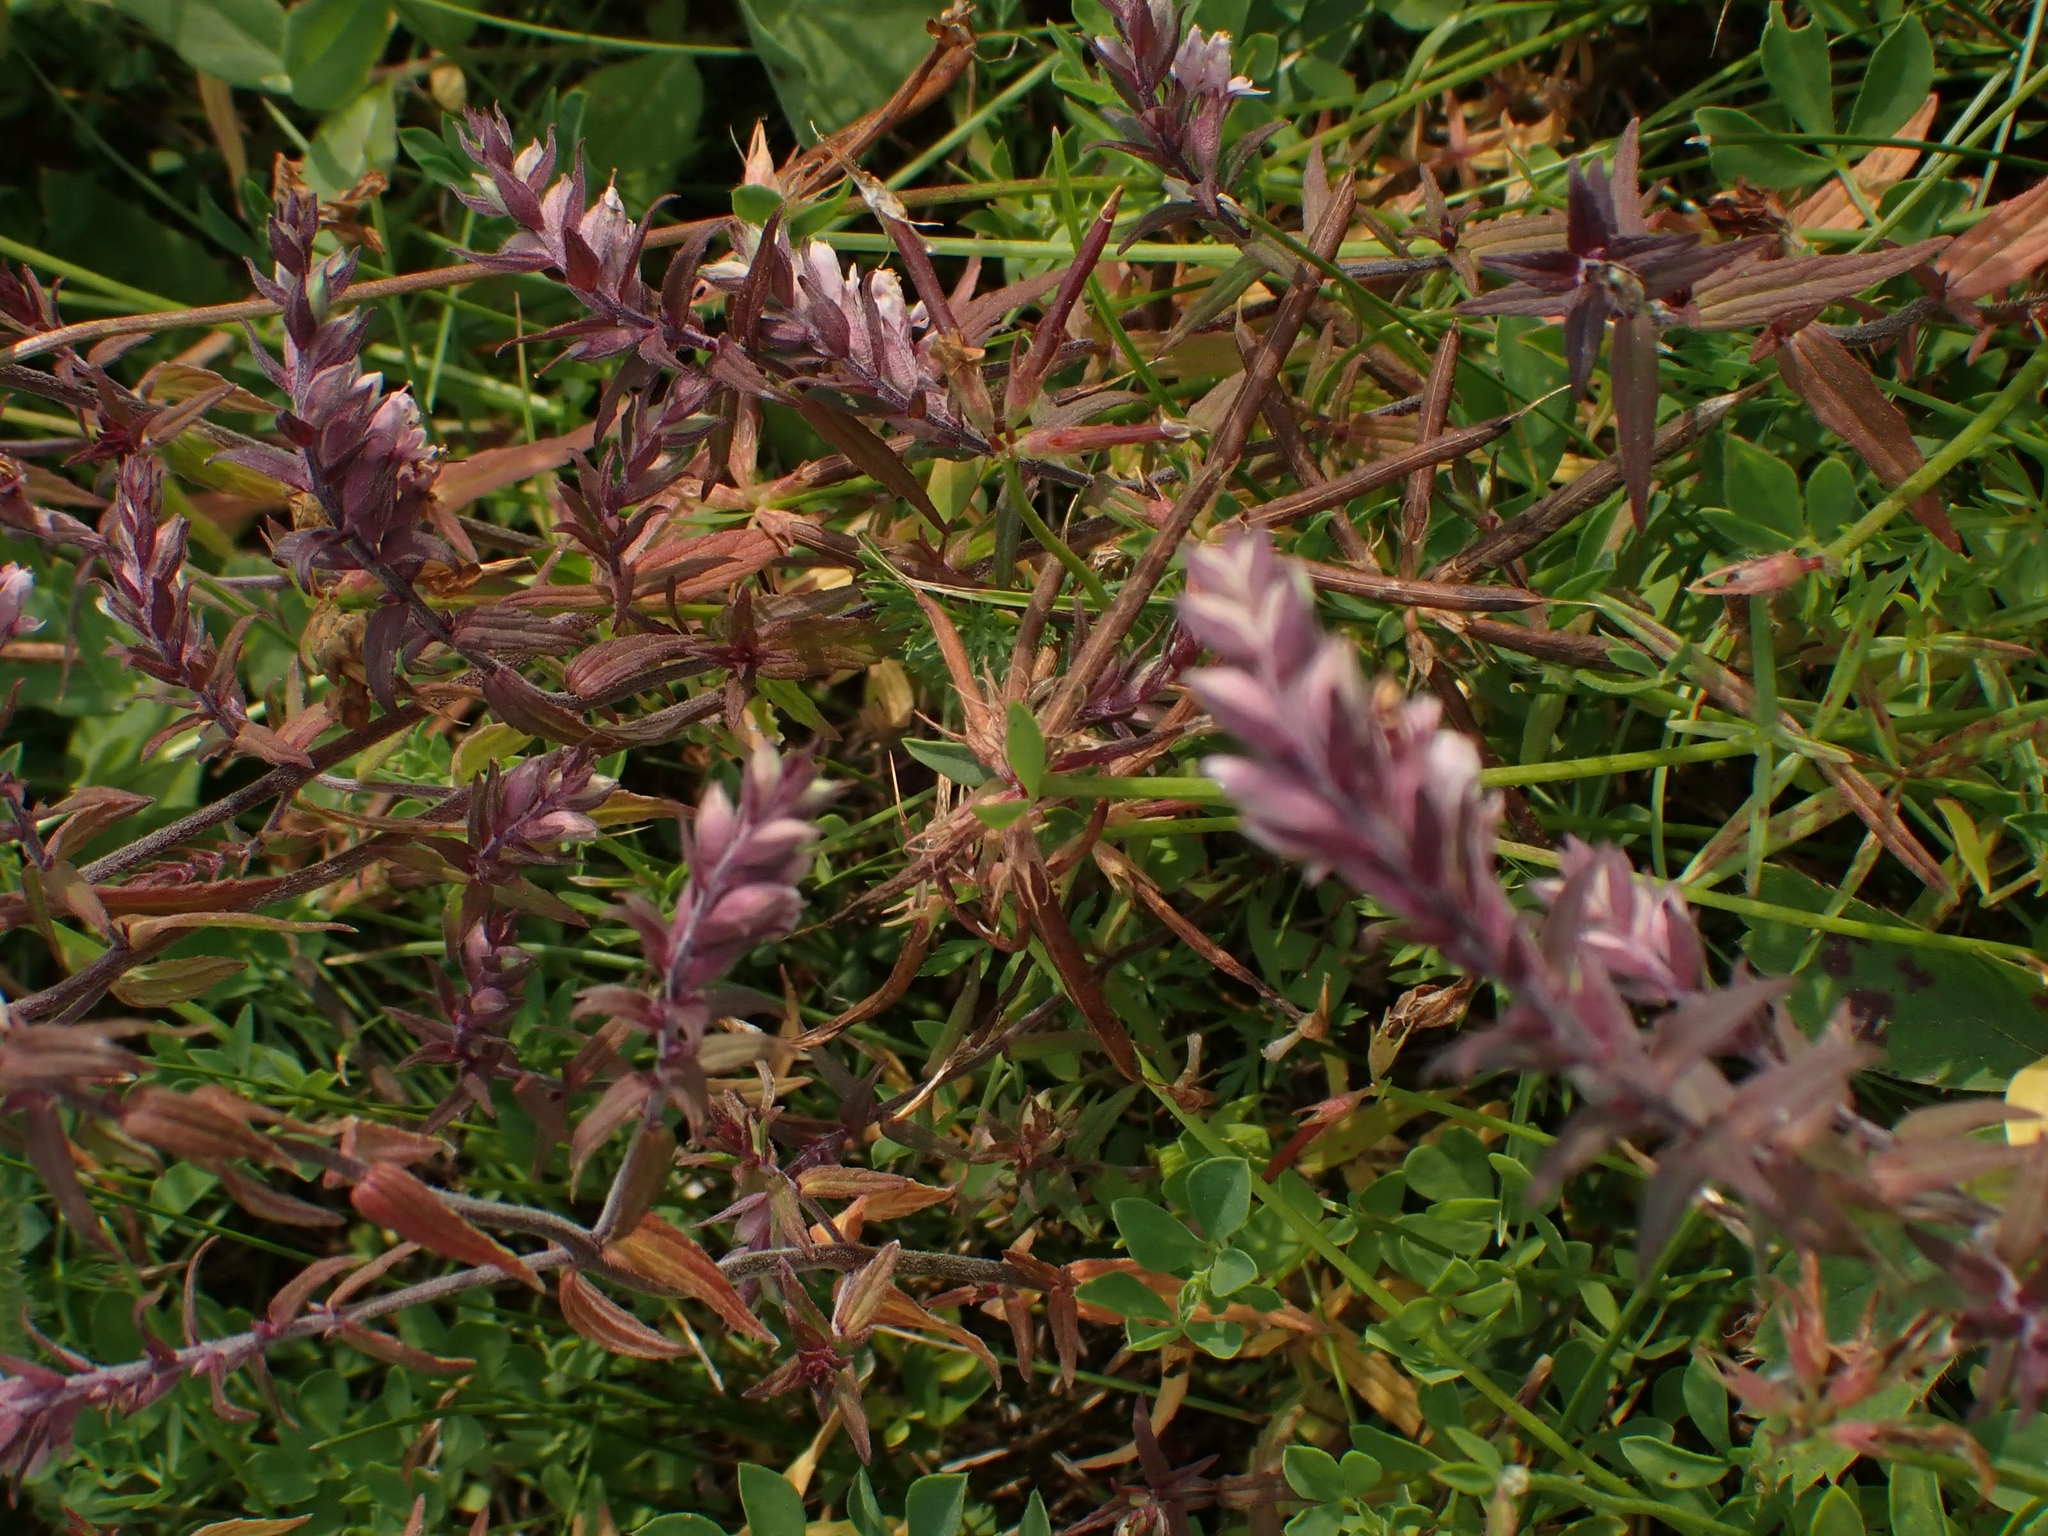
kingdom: Plantae
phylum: Tracheophyta
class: Magnoliopsida
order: Lamiales
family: Orobanchaceae
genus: Odontites
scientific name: Odontites vulgaris
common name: Broomrape
